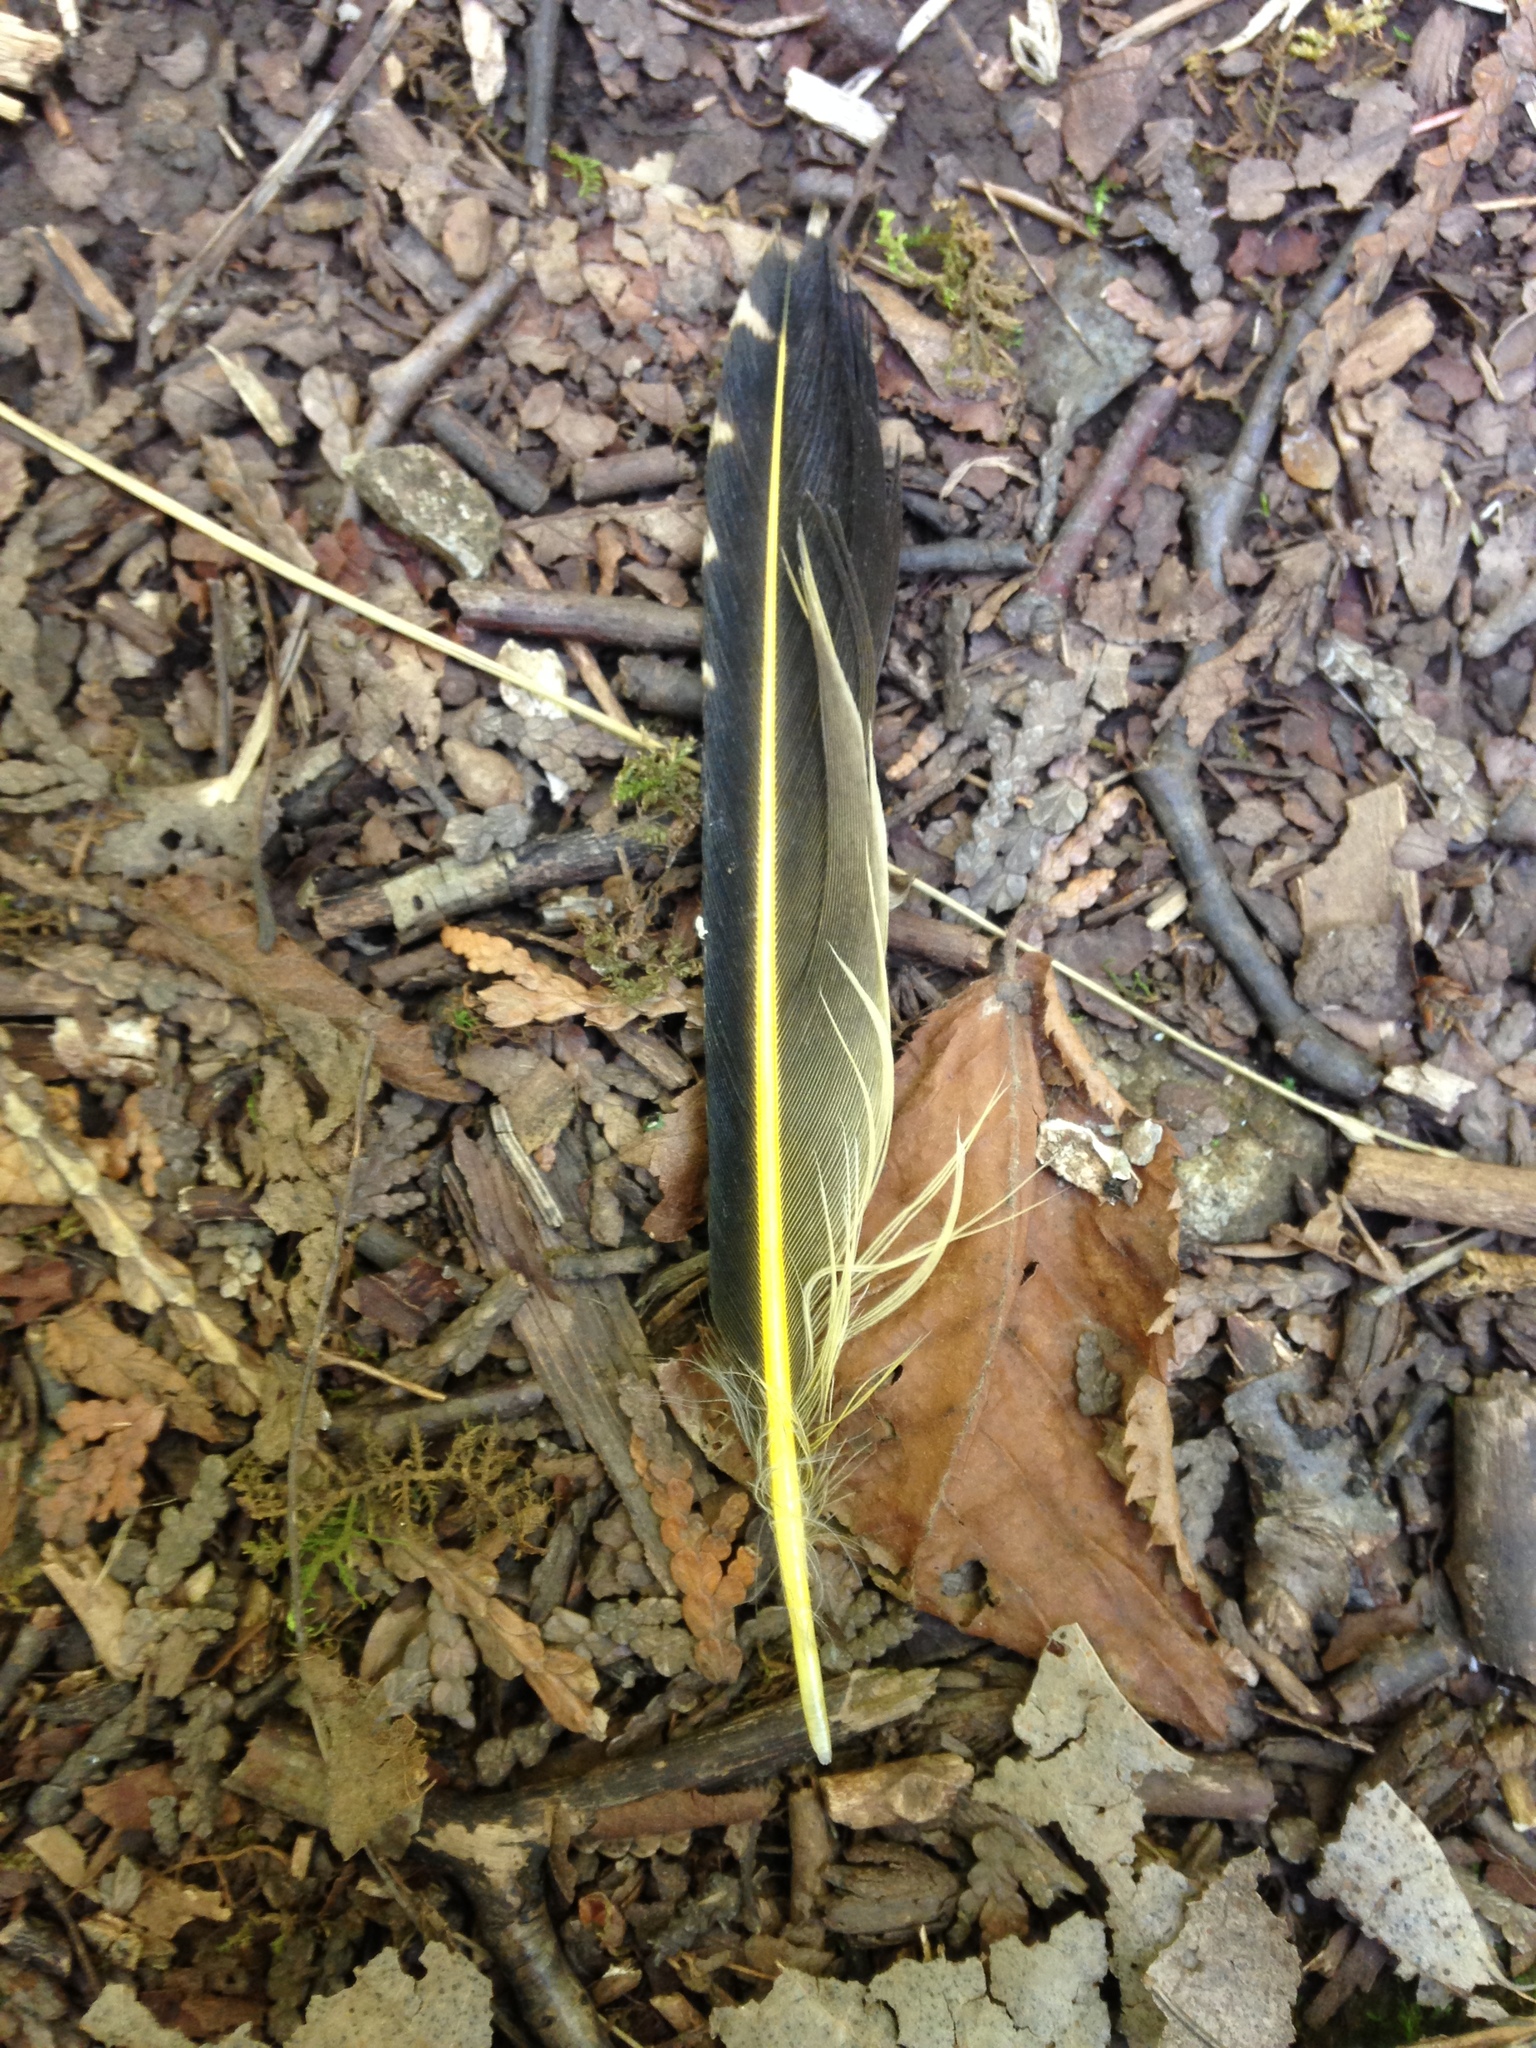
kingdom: Animalia
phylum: Chordata
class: Aves
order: Piciformes
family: Picidae
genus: Colaptes
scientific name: Colaptes auratus
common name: Northern flicker
